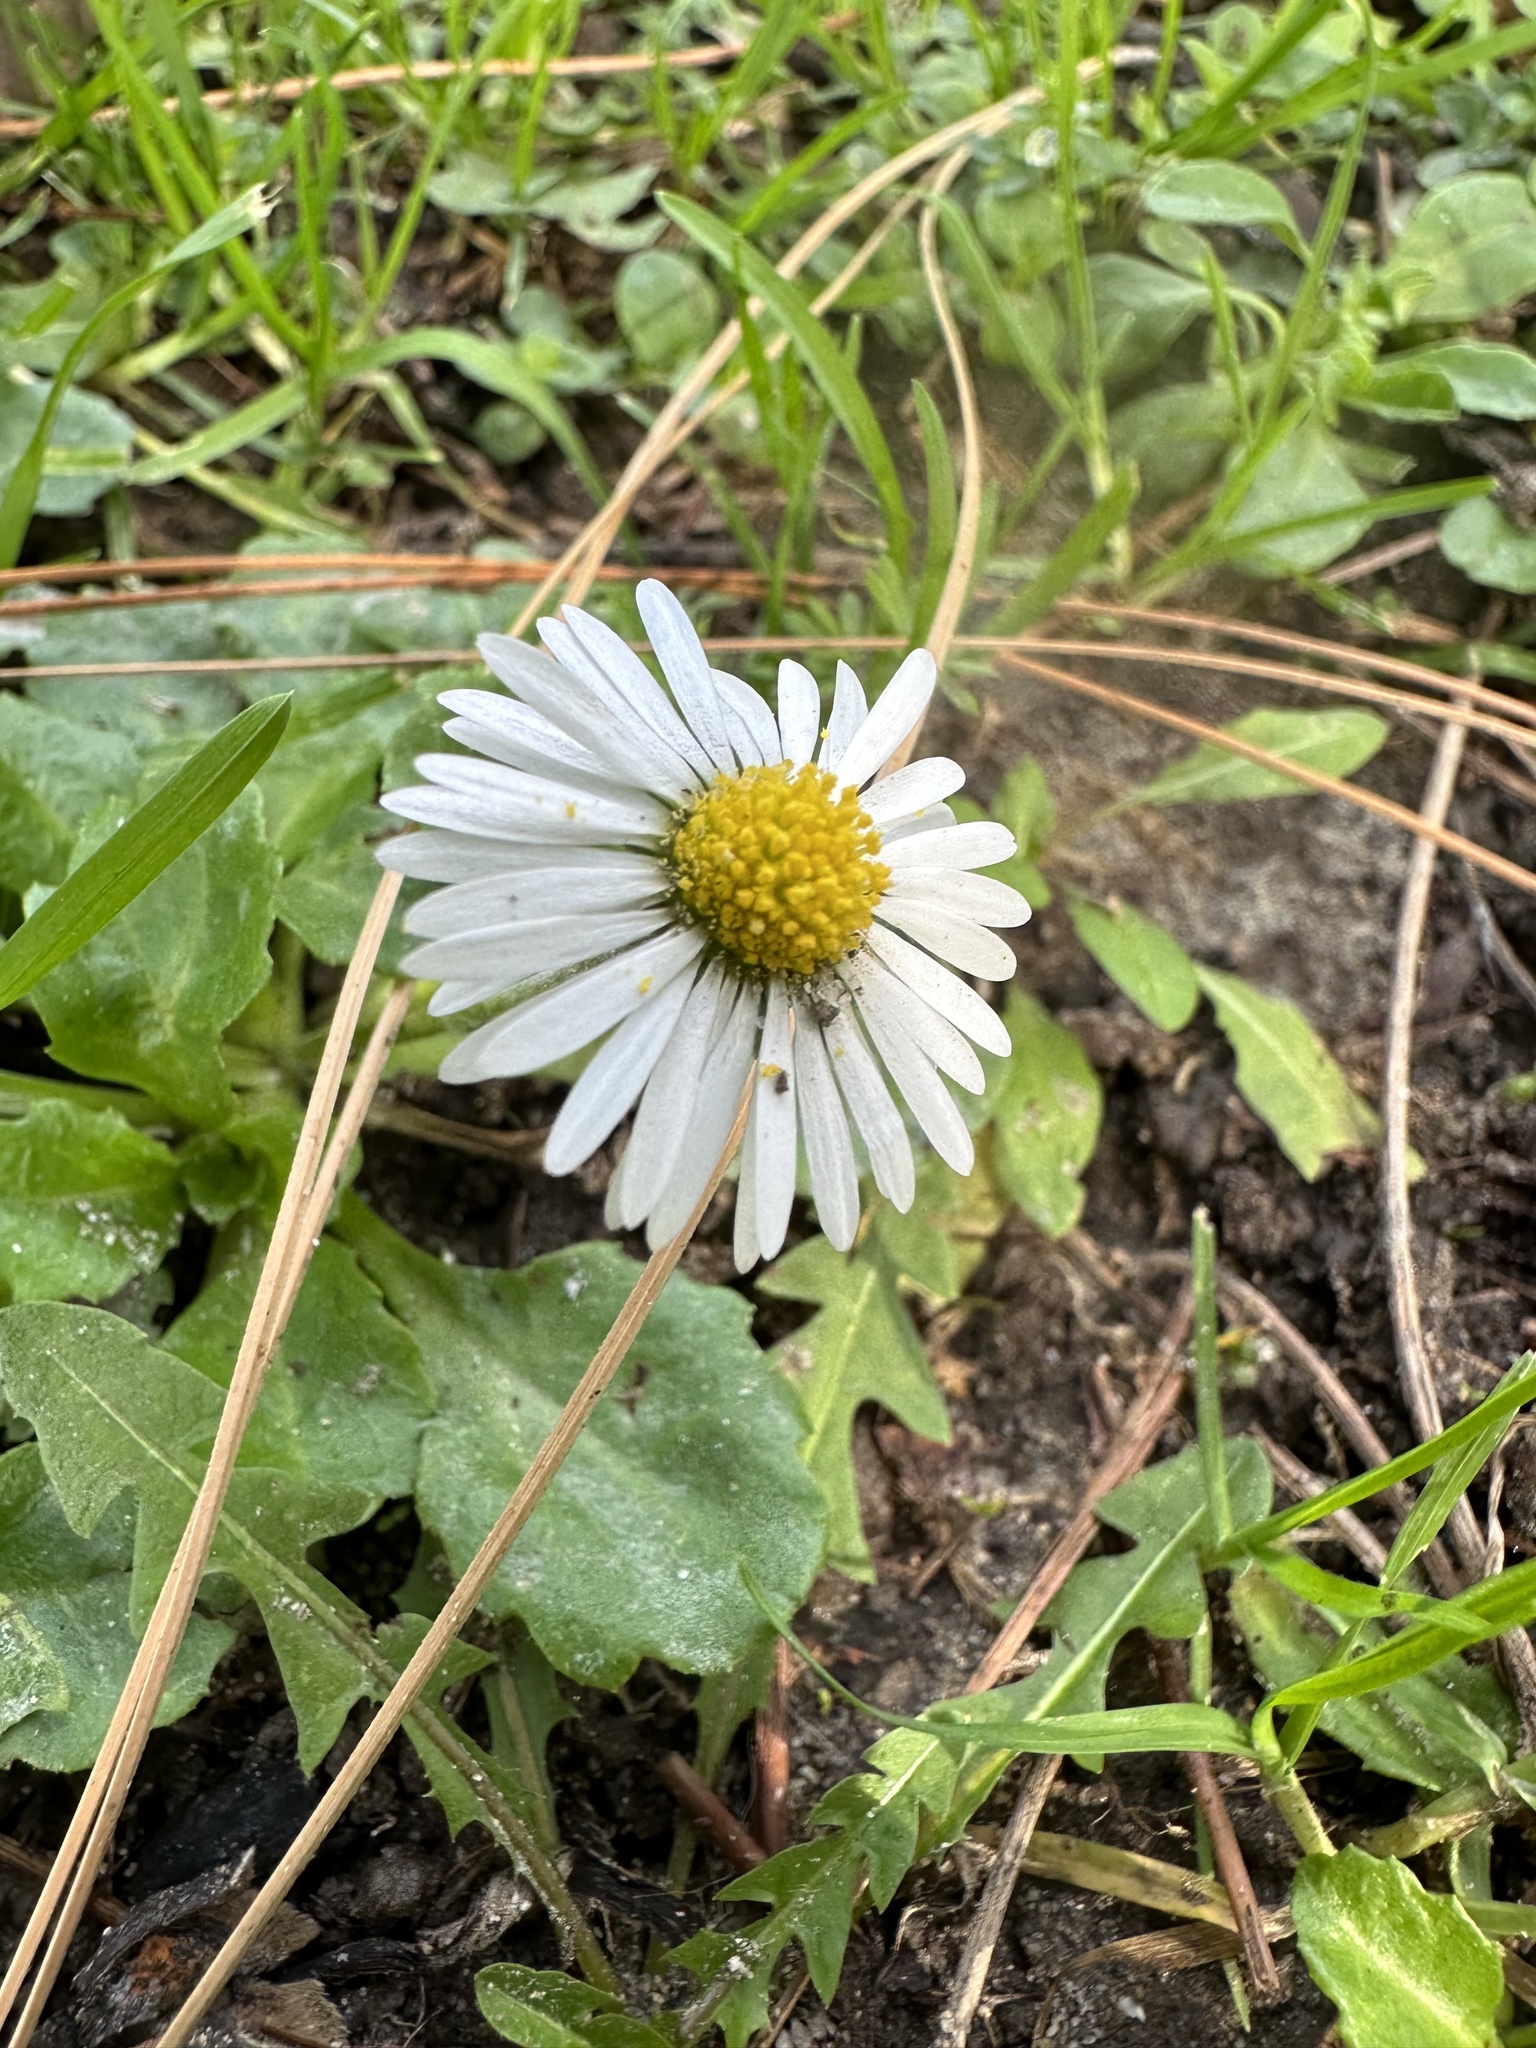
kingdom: Plantae
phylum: Tracheophyta
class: Magnoliopsida
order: Asterales
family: Asteraceae
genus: Bellis
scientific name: Bellis perennis
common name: Lawndaisy
